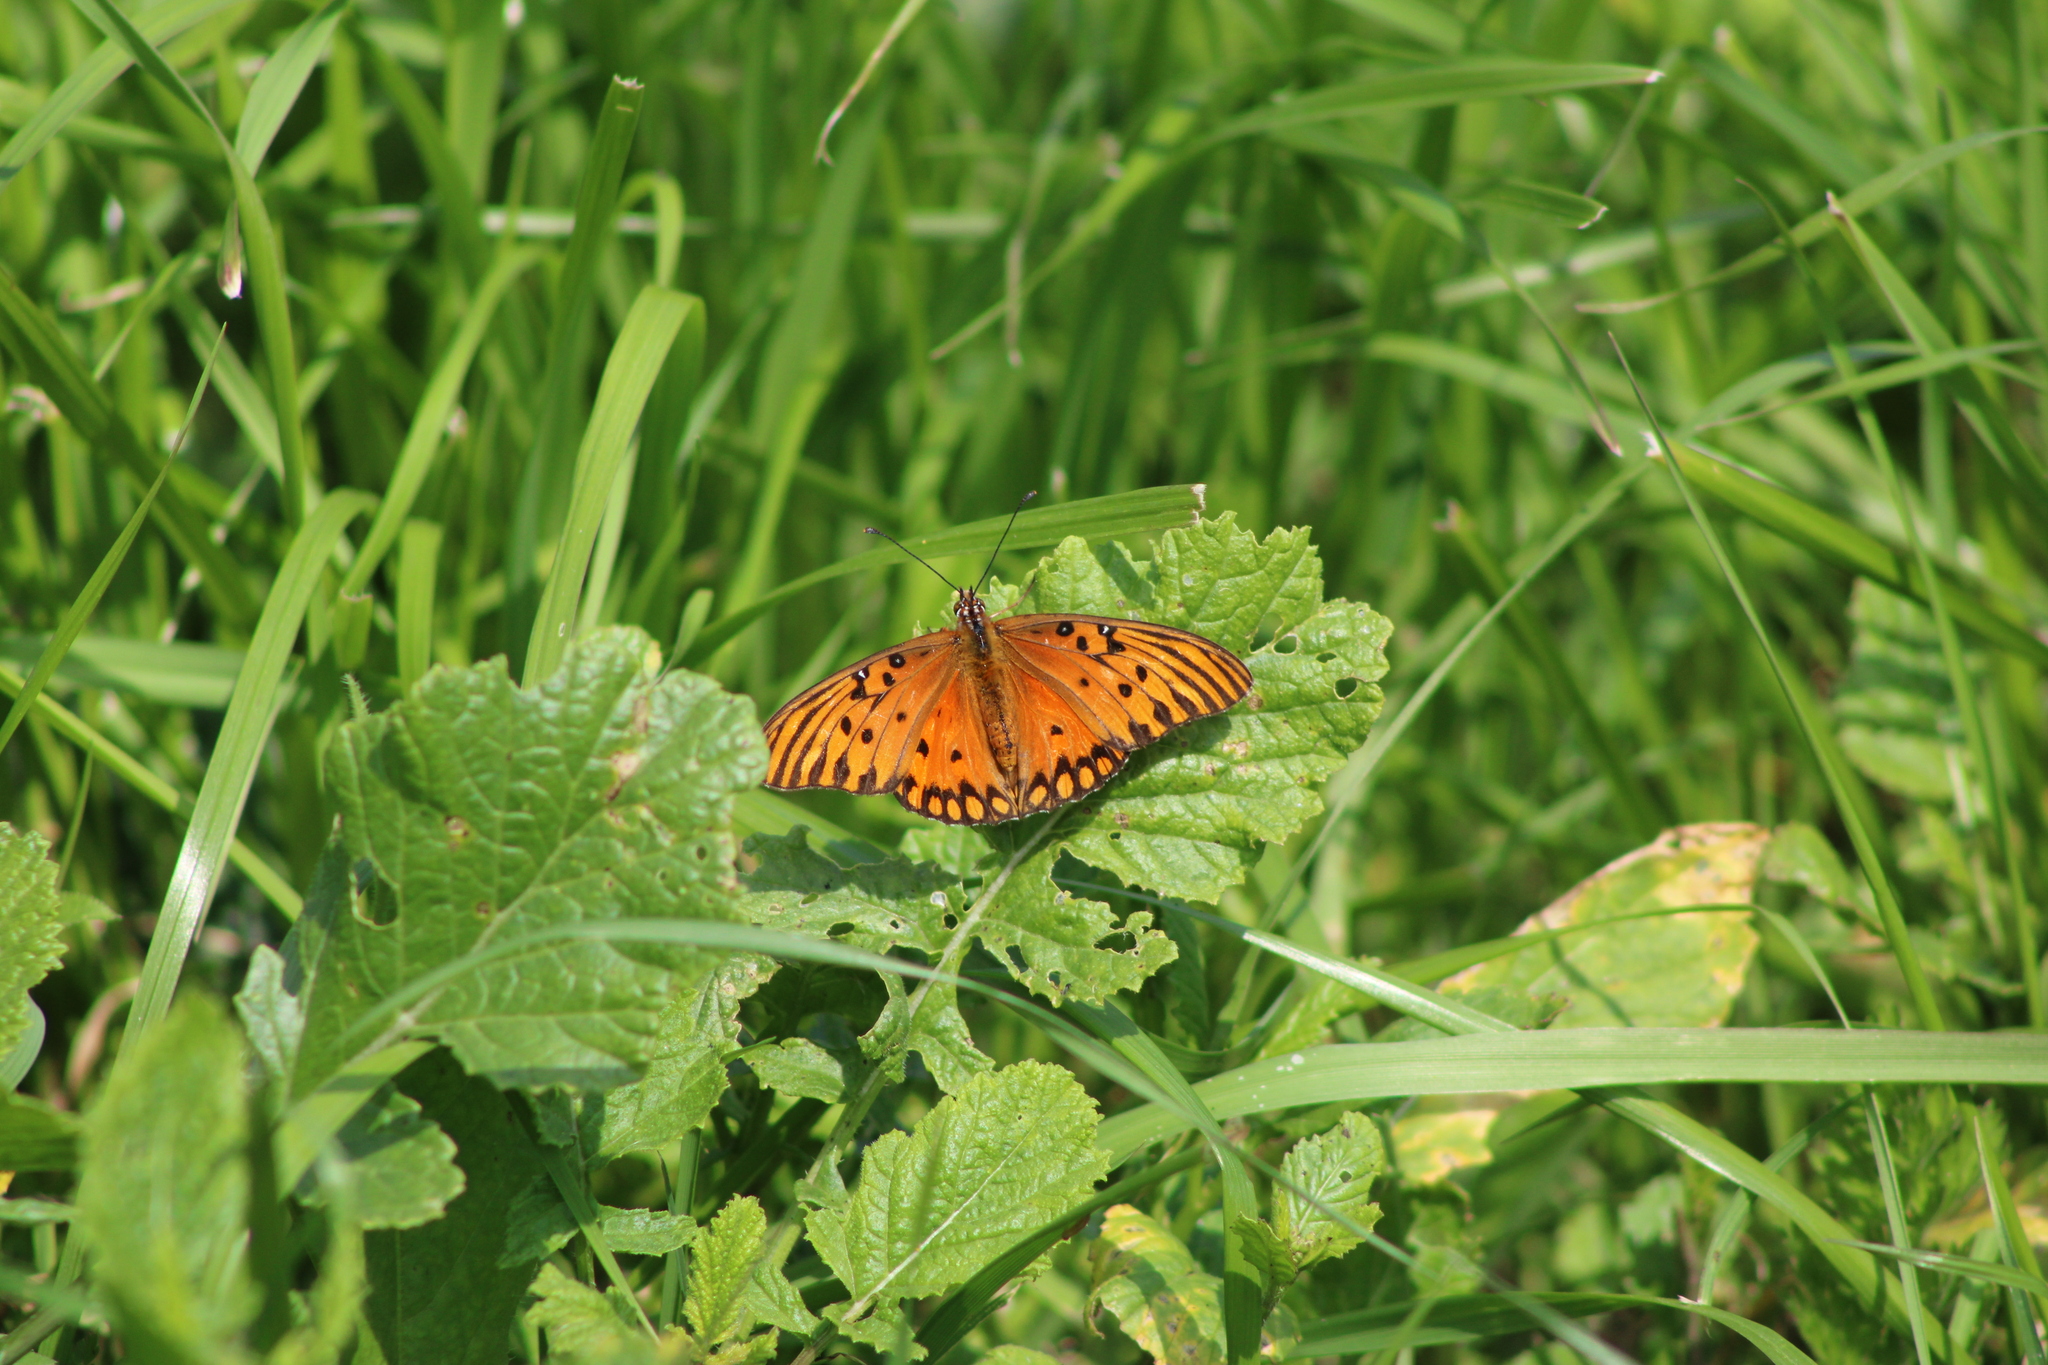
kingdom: Animalia
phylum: Arthropoda
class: Insecta
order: Lepidoptera
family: Nymphalidae
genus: Dione
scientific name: Dione vanillae
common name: Gulf fritillary
